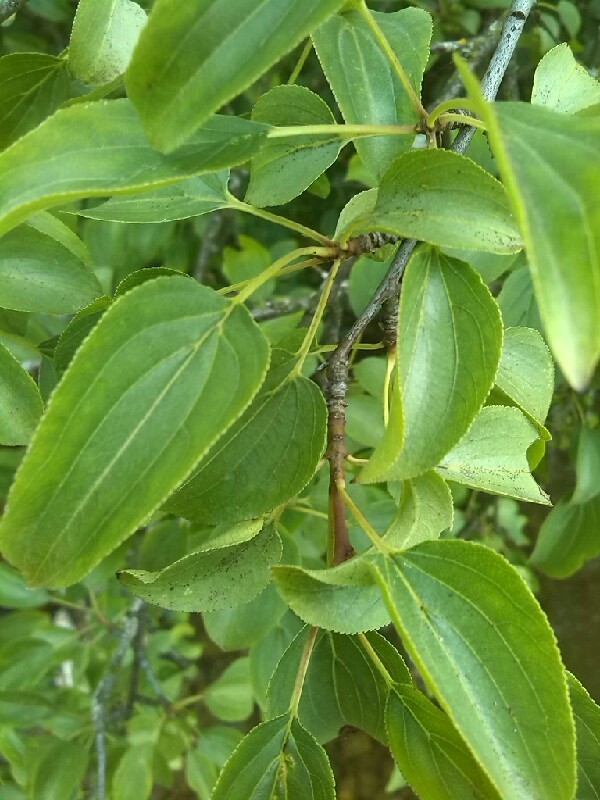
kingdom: Plantae
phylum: Tracheophyta
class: Magnoliopsida
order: Rosales
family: Rhamnaceae
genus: Rhamnus
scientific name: Rhamnus cathartica
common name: Common buckthorn
